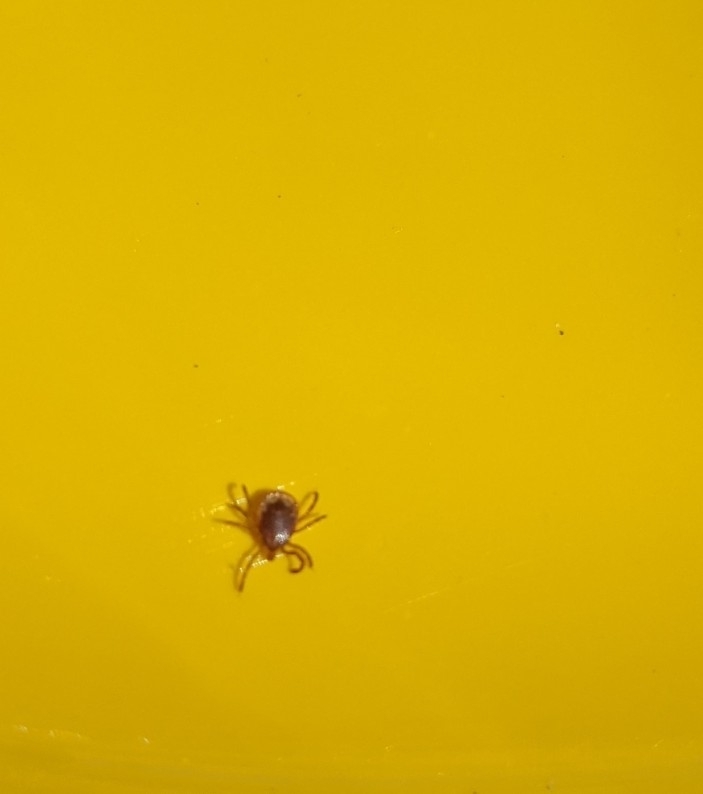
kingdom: Animalia
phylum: Arthropoda
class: Arachnida
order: Ixodida
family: Ixodidae
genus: Amblyomma
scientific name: Amblyomma americanum
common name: Lone star tick
